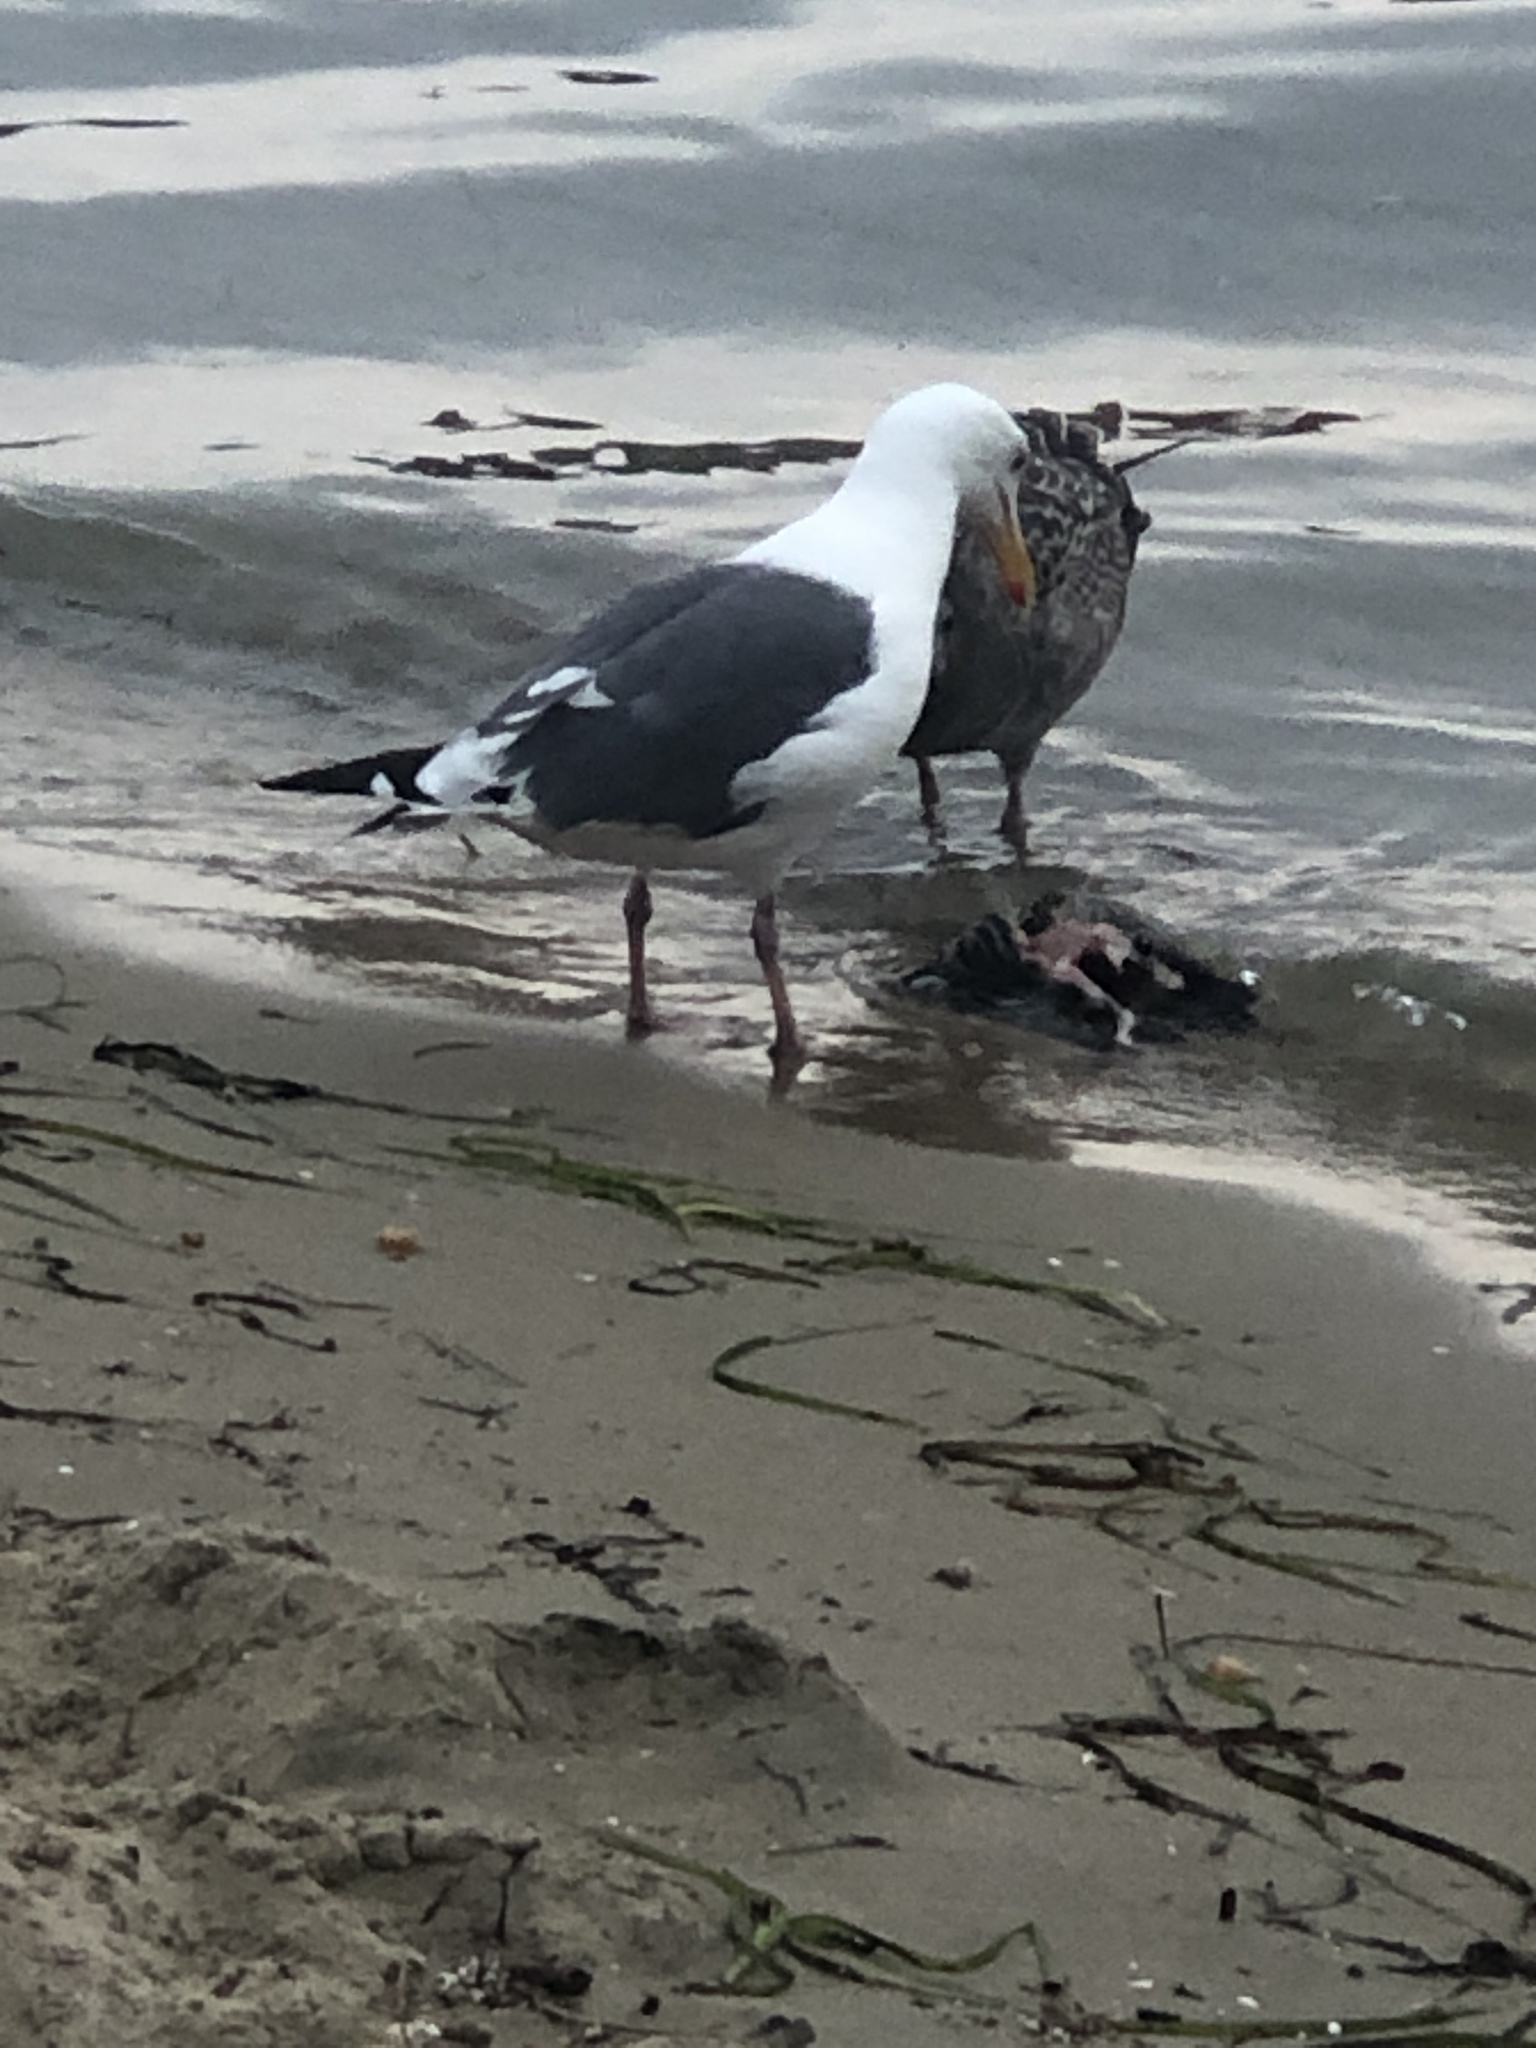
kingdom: Animalia
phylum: Chordata
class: Aves
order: Charadriiformes
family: Laridae
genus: Larus
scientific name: Larus occidentalis
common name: Western gull
